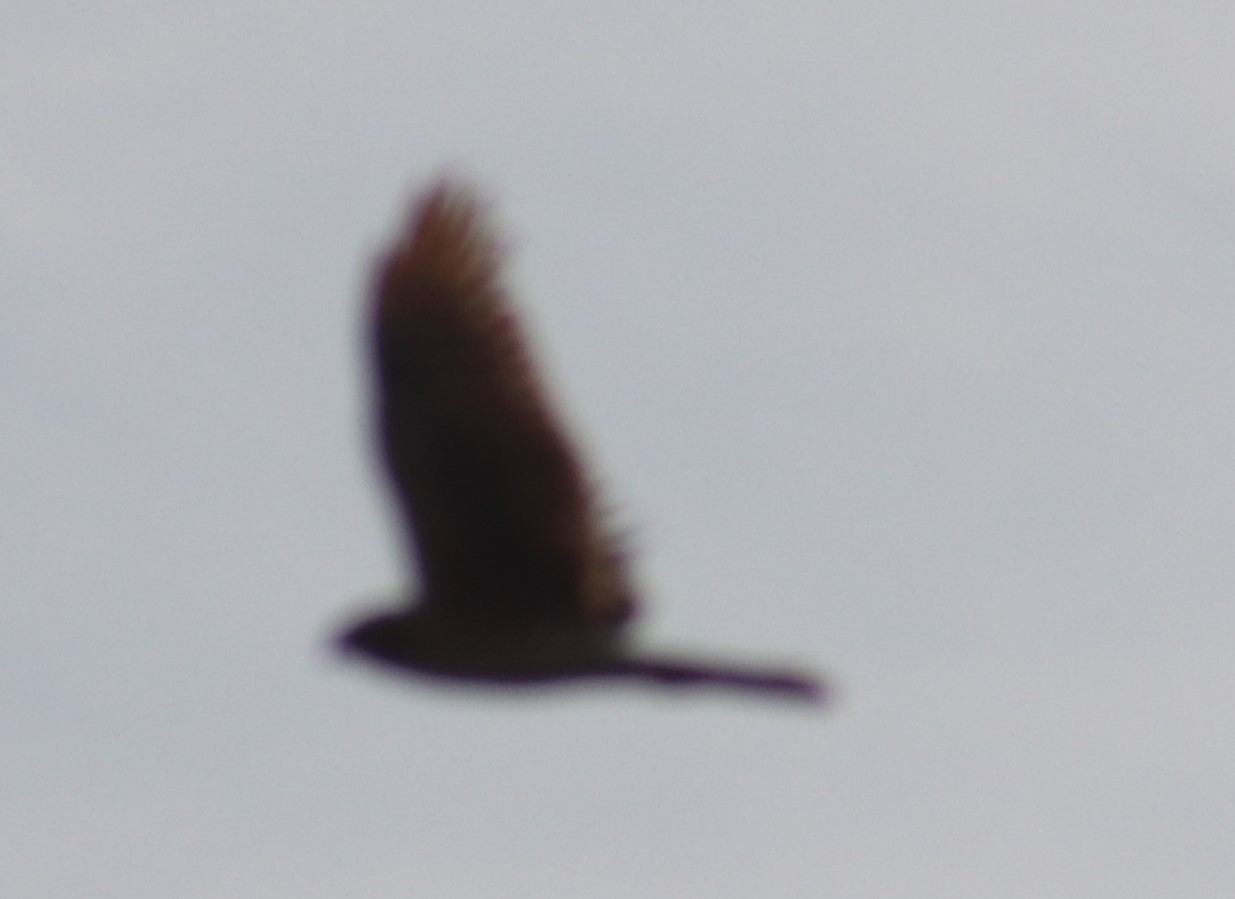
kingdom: Animalia
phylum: Chordata
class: Aves
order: Accipitriformes
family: Accipitridae
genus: Circus
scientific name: Circus cyaneus
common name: Hen harrier
